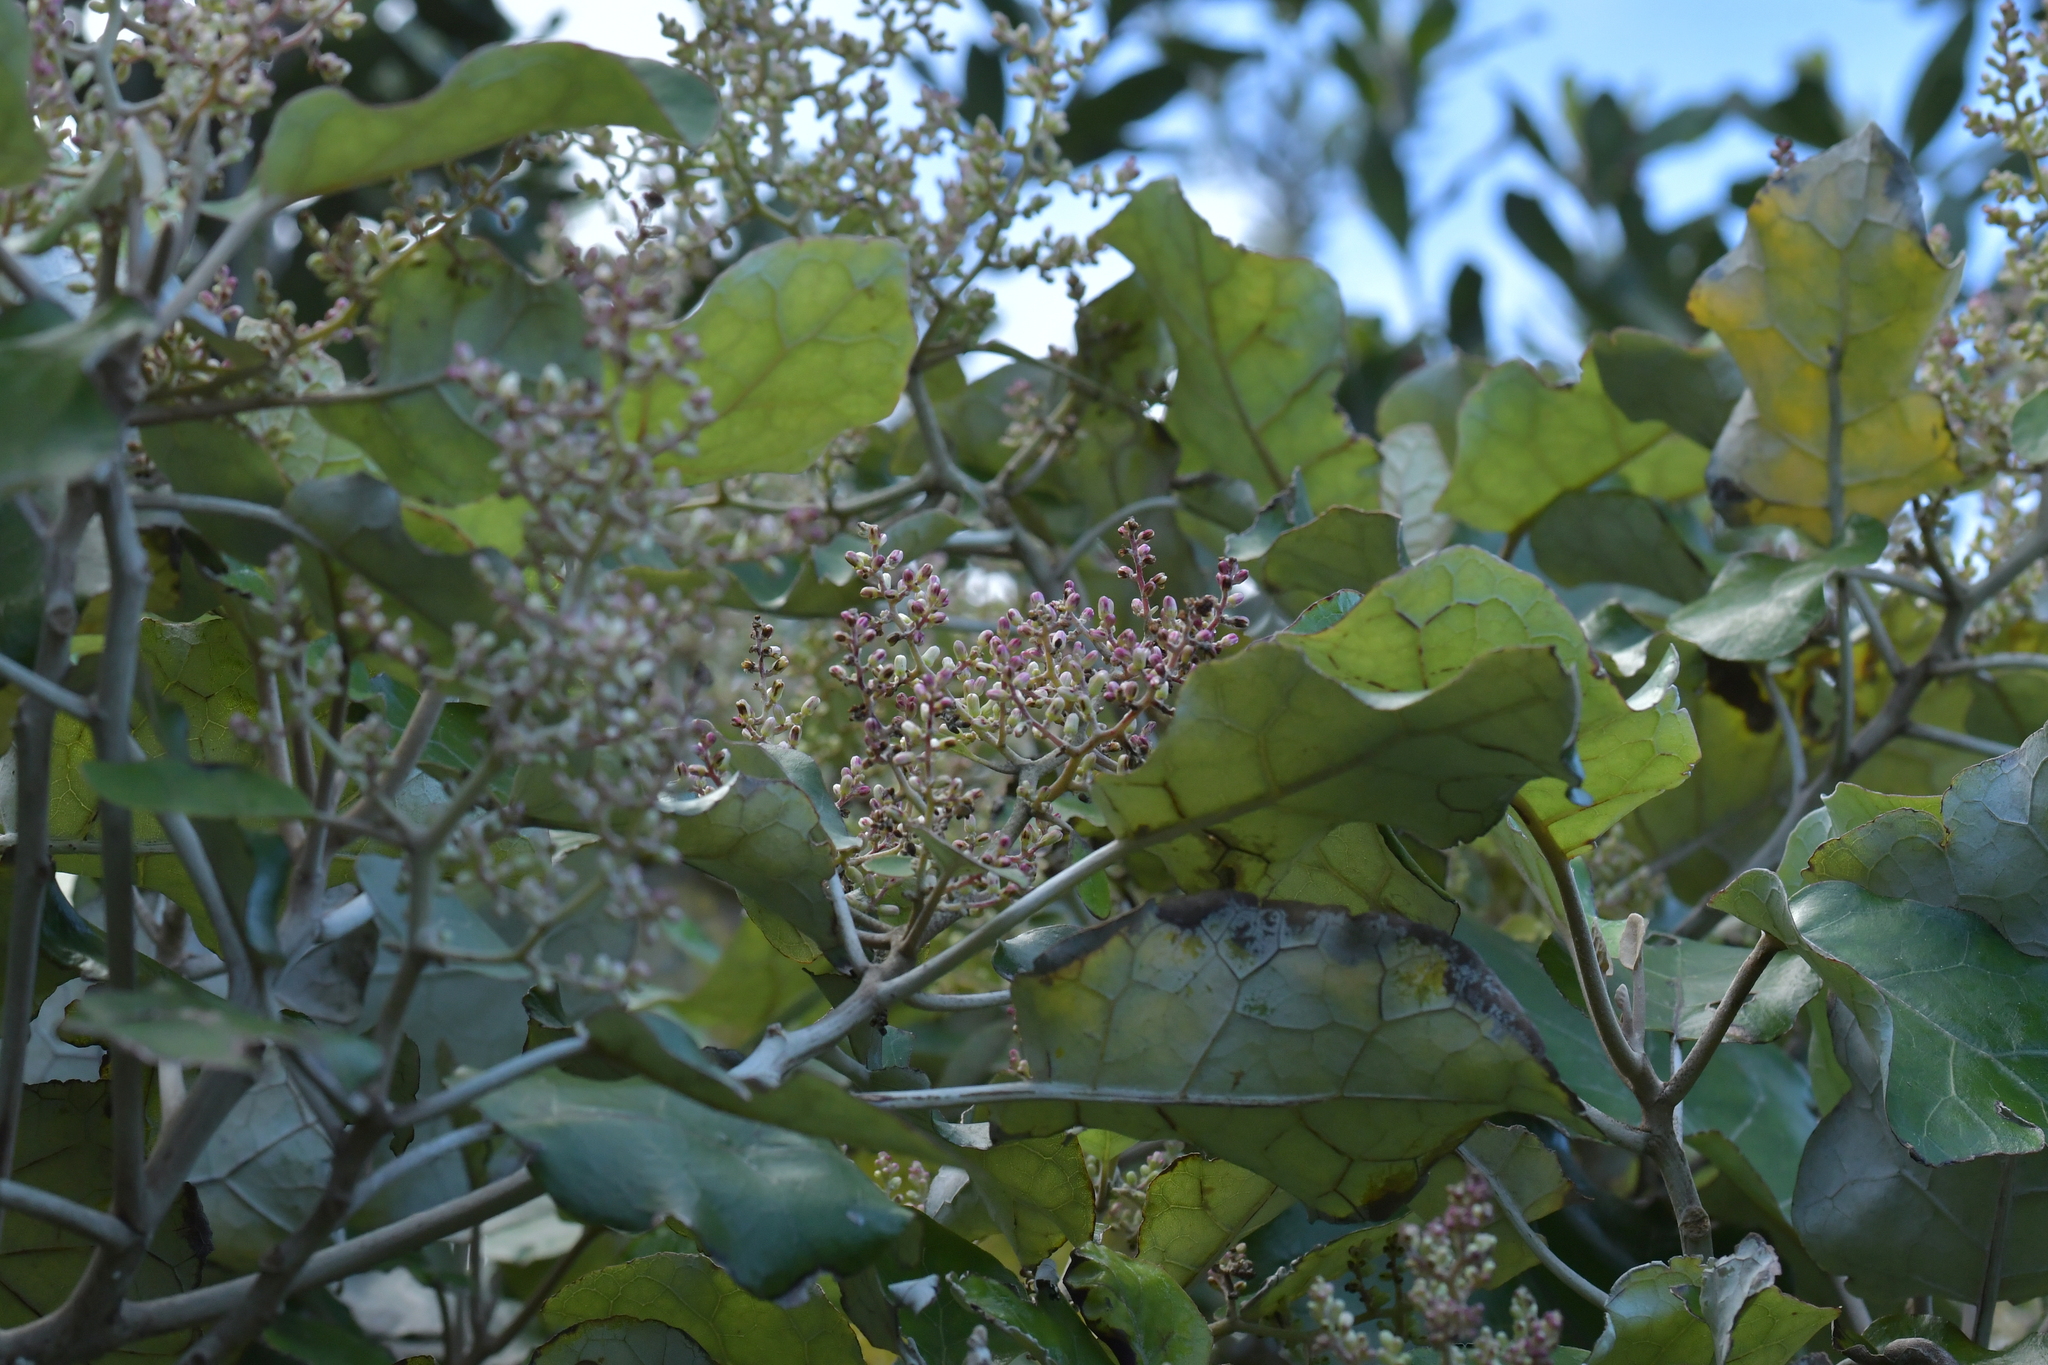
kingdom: Plantae
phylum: Tracheophyta
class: Magnoliopsida
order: Asterales
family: Asteraceae
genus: Brachyglottis
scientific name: Brachyglottis repanda
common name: Hedge ragwort
